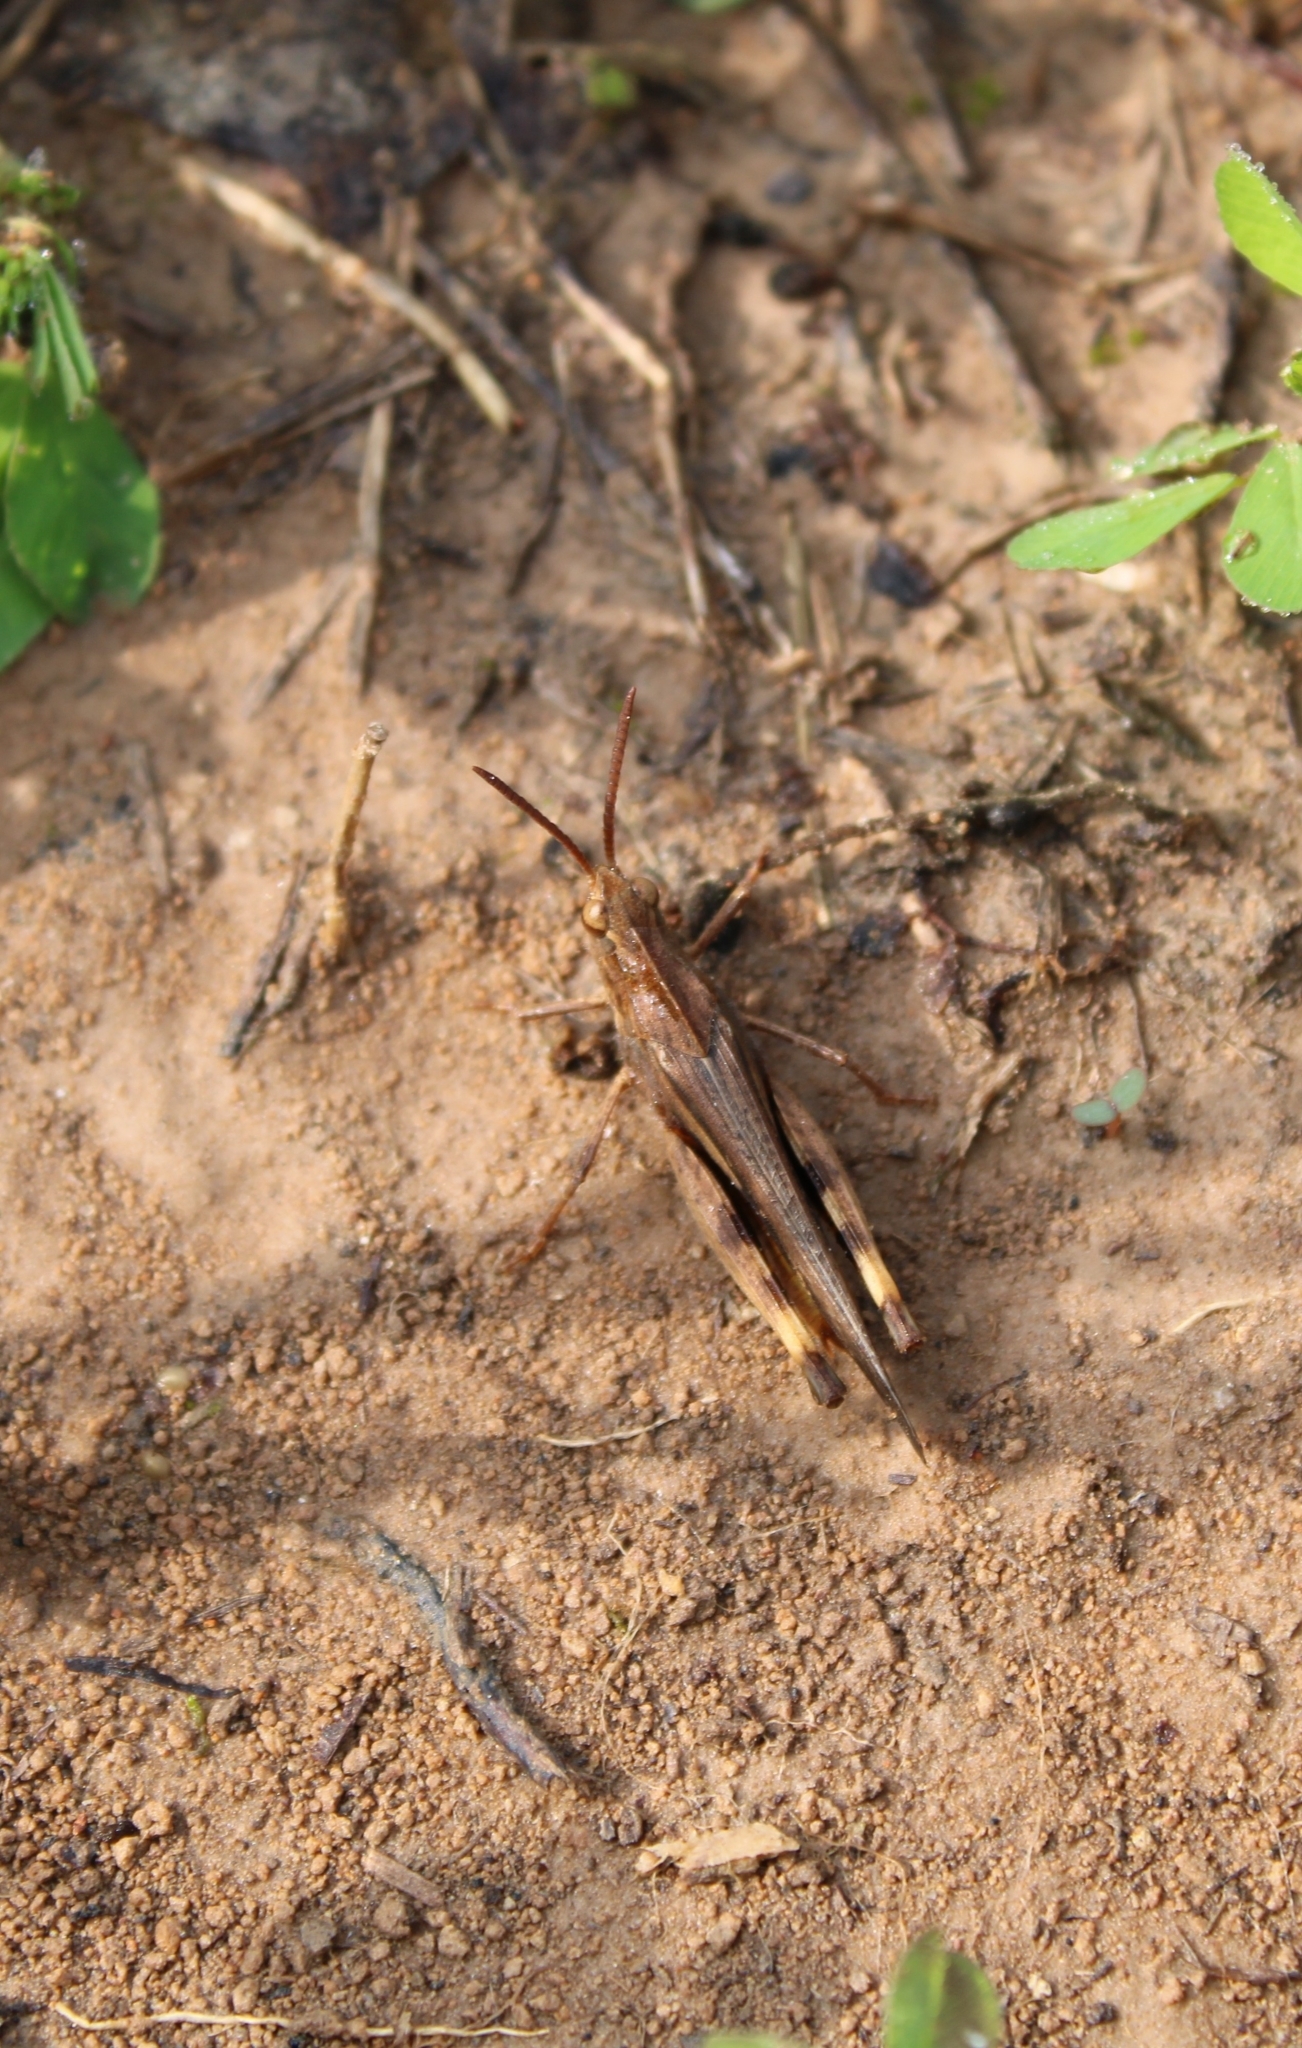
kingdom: Animalia
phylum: Arthropoda
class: Insecta
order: Orthoptera
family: Acrididae
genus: Chortophaga
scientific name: Chortophaga viridifasciata
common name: Green-striped grasshopper
